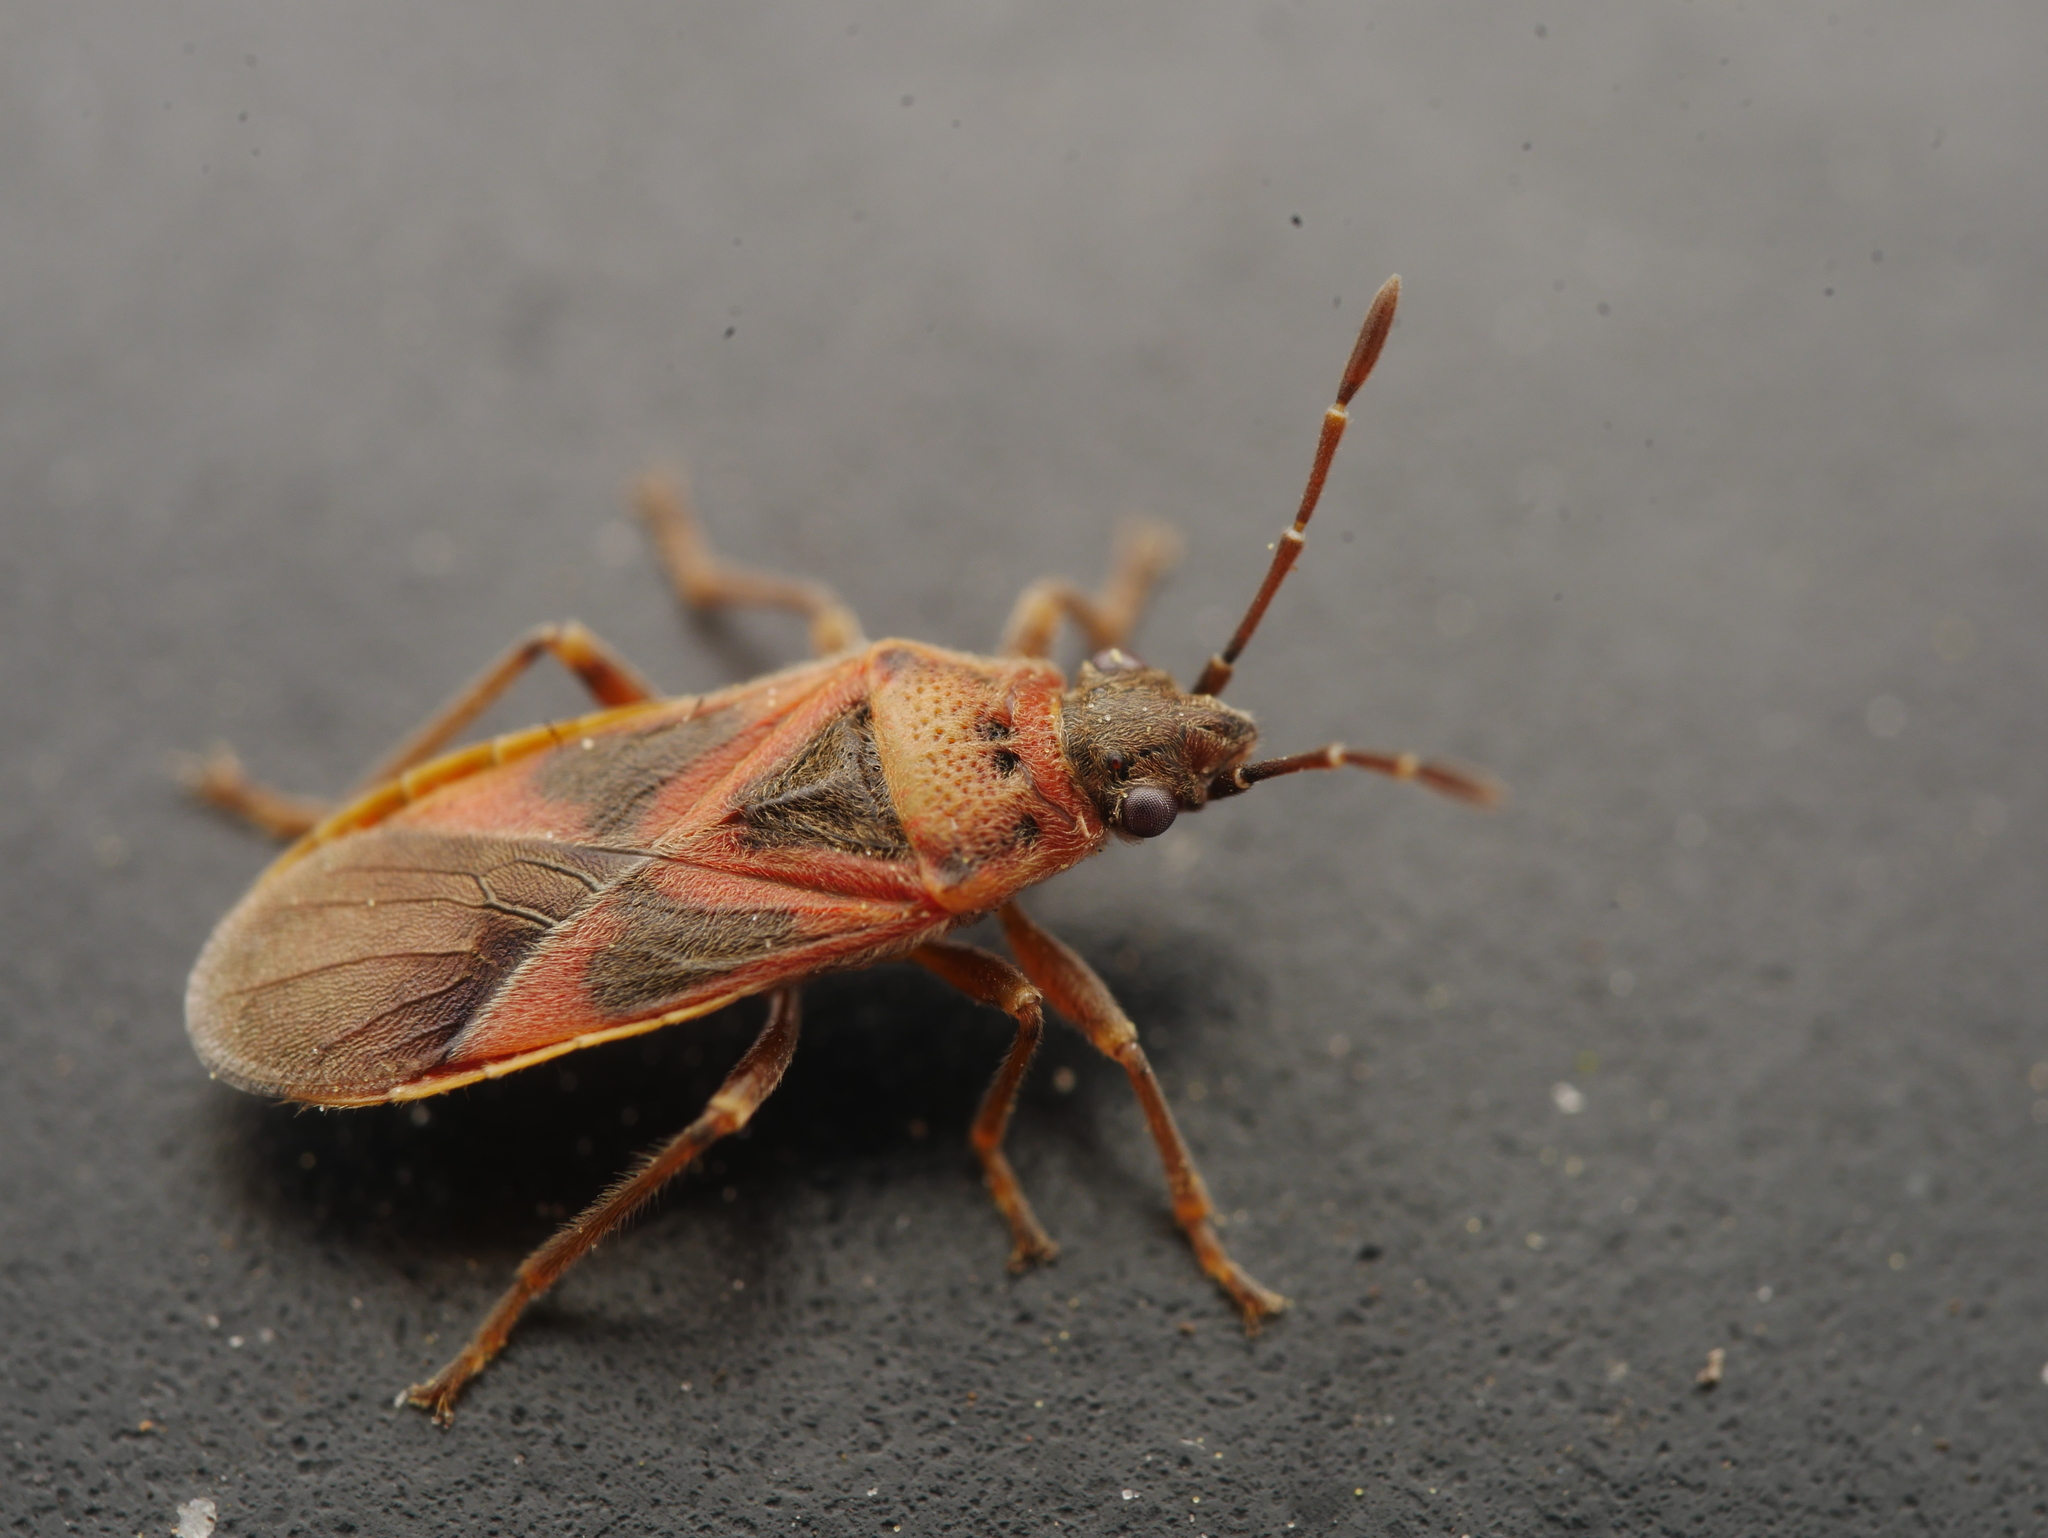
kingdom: Animalia
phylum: Arthropoda
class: Insecta
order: Hemiptera
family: Lygaeidae
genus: Arocatus
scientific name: Arocatus roeselii
